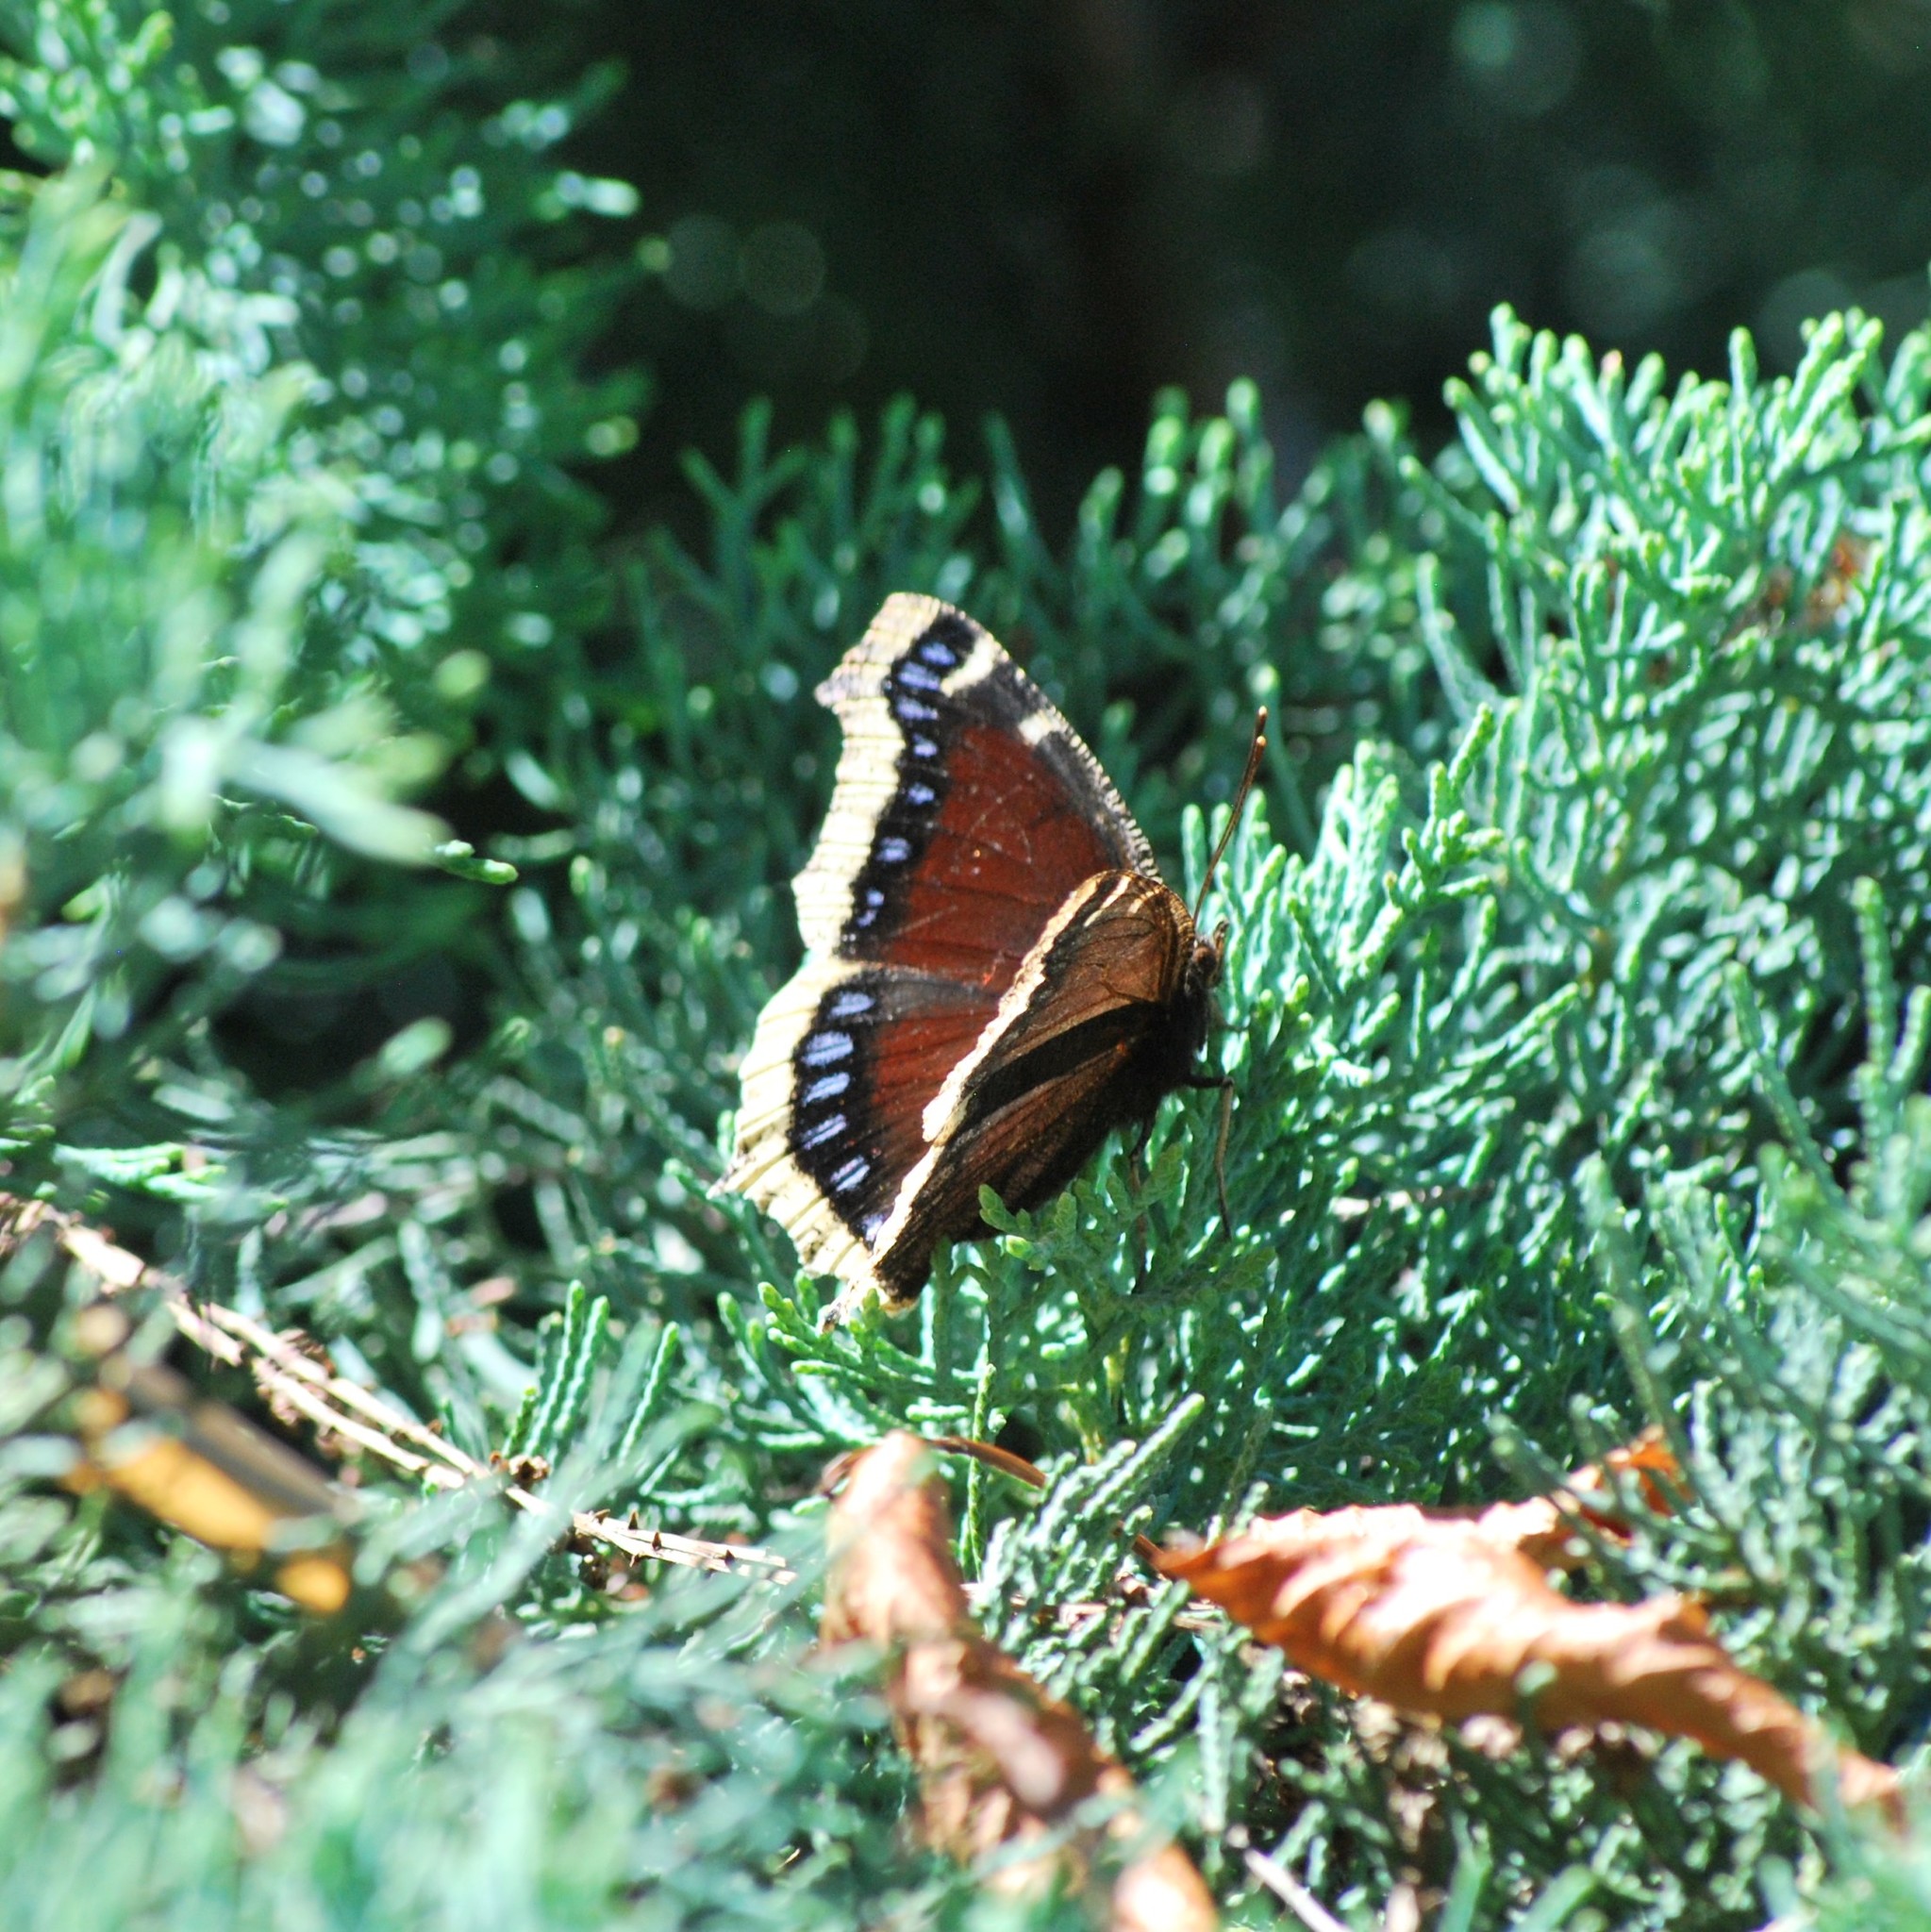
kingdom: Animalia
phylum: Arthropoda
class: Insecta
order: Lepidoptera
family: Nymphalidae
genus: Nymphalis
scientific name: Nymphalis antiopa
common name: Camberwell beauty
